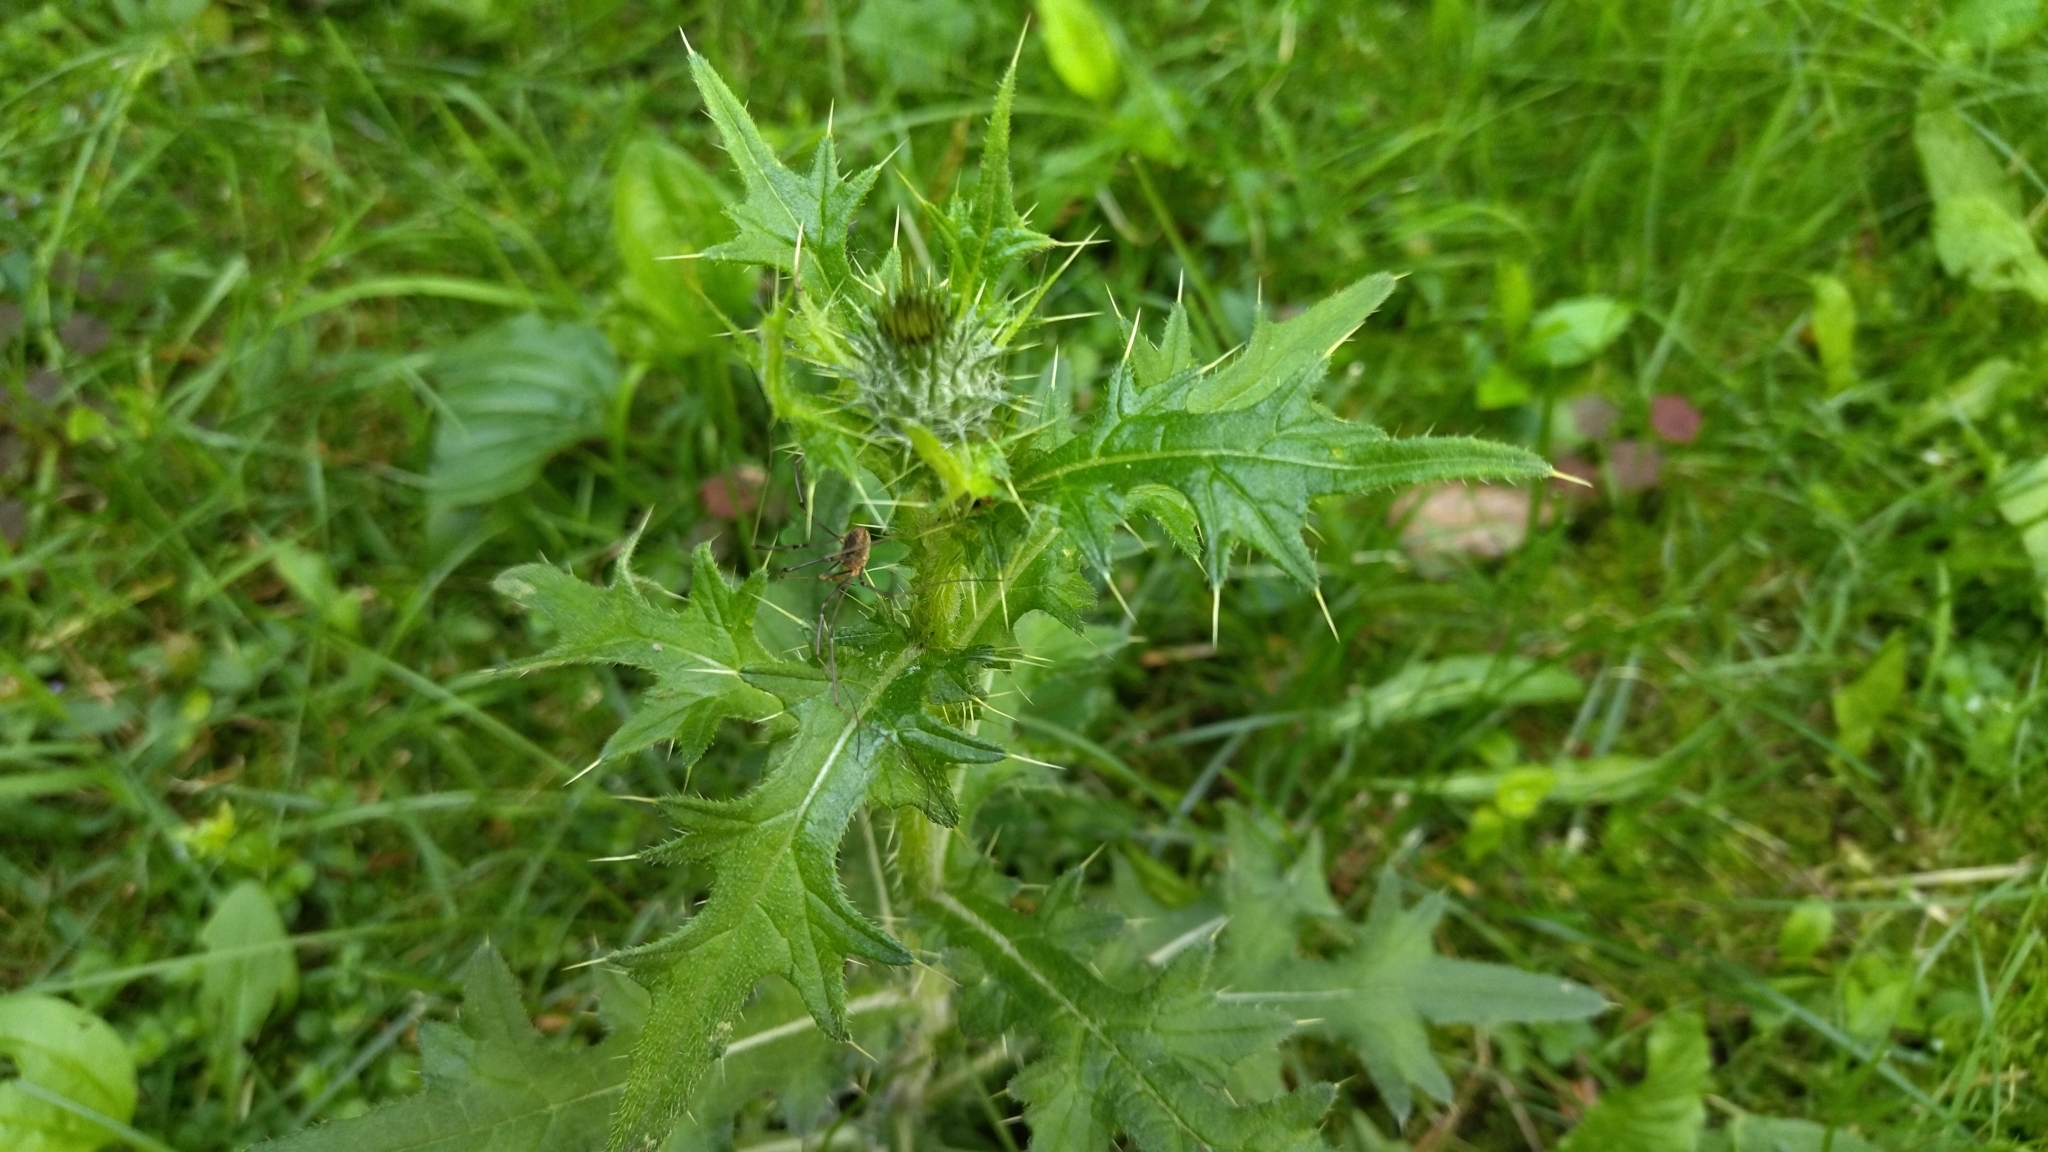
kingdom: Plantae
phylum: Tracheophyta
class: Magnoliopsida
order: Asterales
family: Asteraceae
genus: Cirsium
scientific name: Cirsium vulgare
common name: Bull thistle
